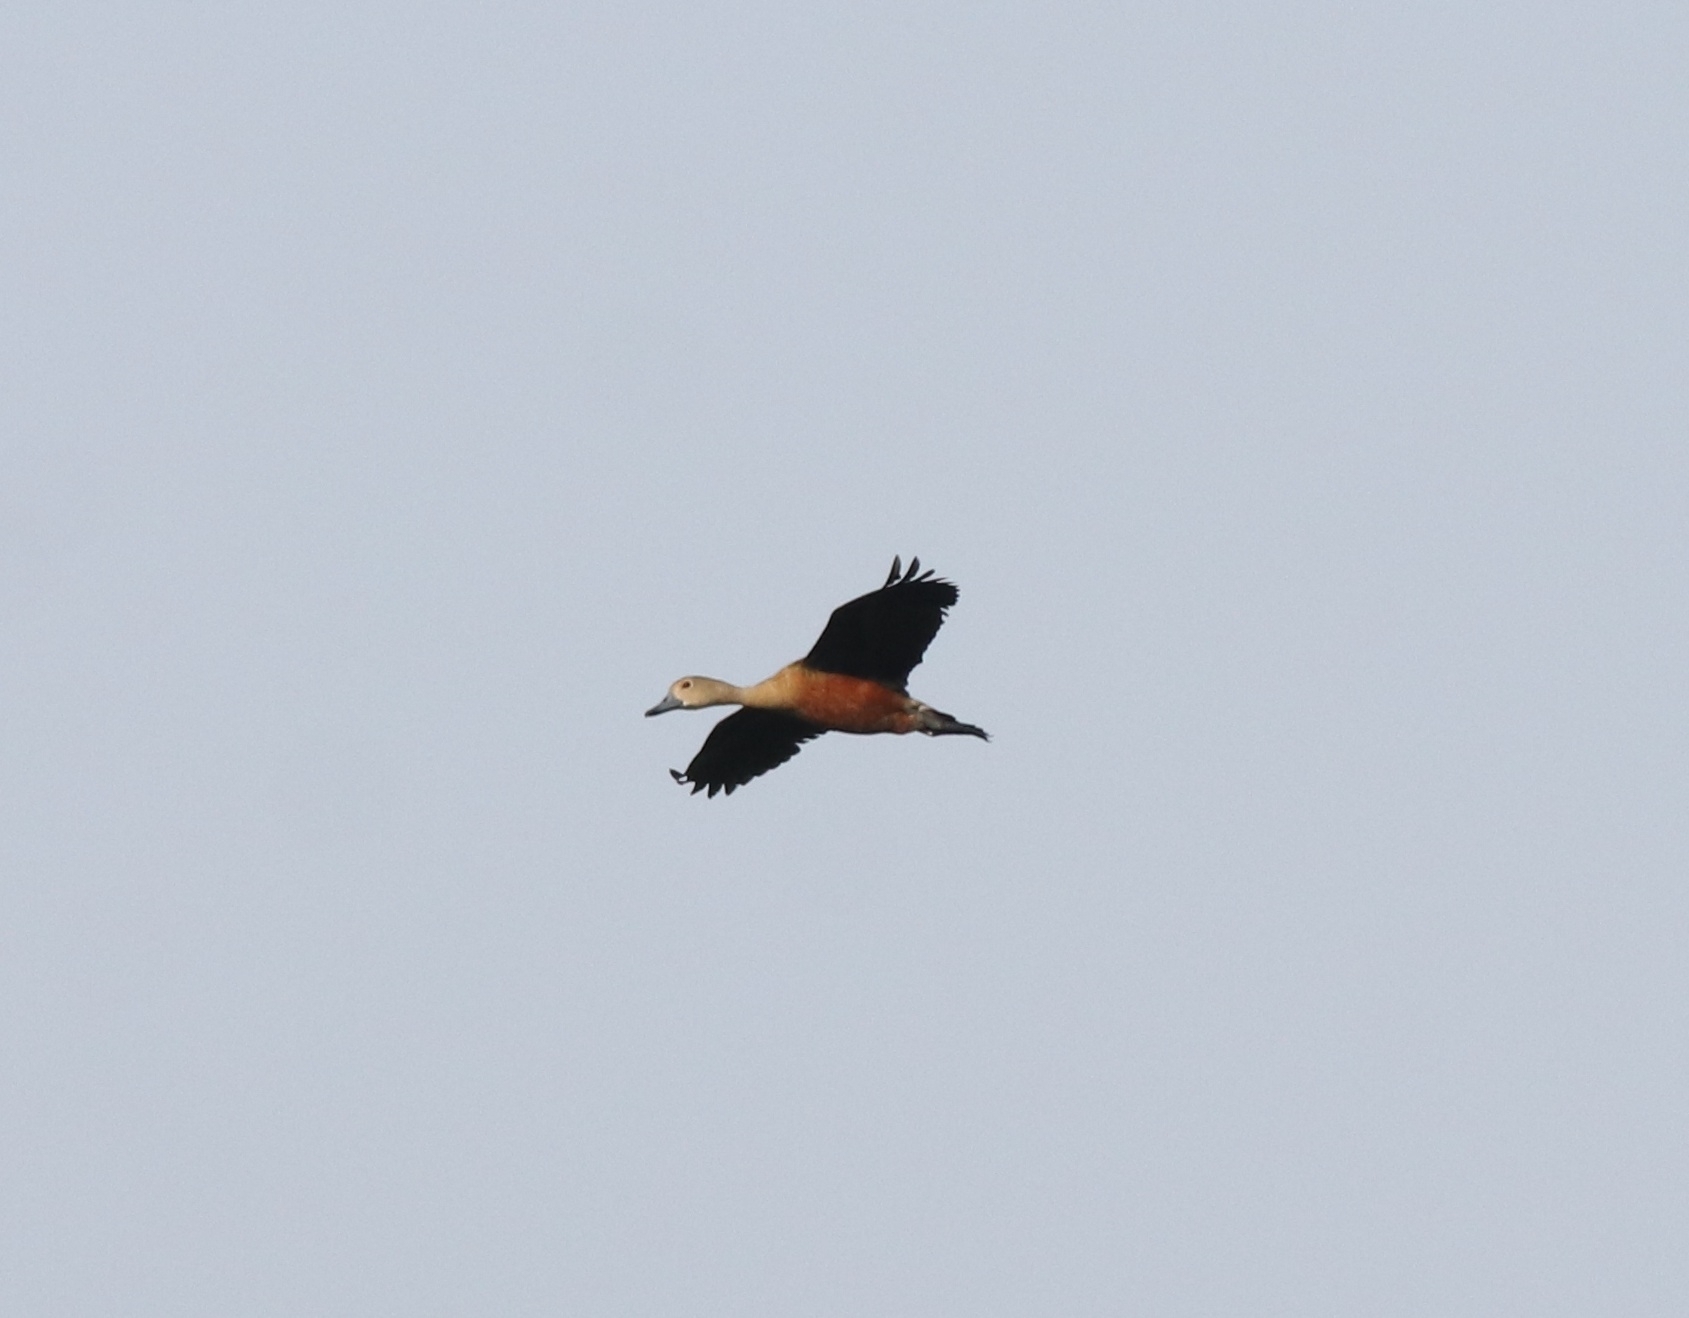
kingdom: Animalia
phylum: Chordata
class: Aves
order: Anseriformes
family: Anatidae
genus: Dendrocygna
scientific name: Dendrocygna javanica
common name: Lesser whistling-duck
